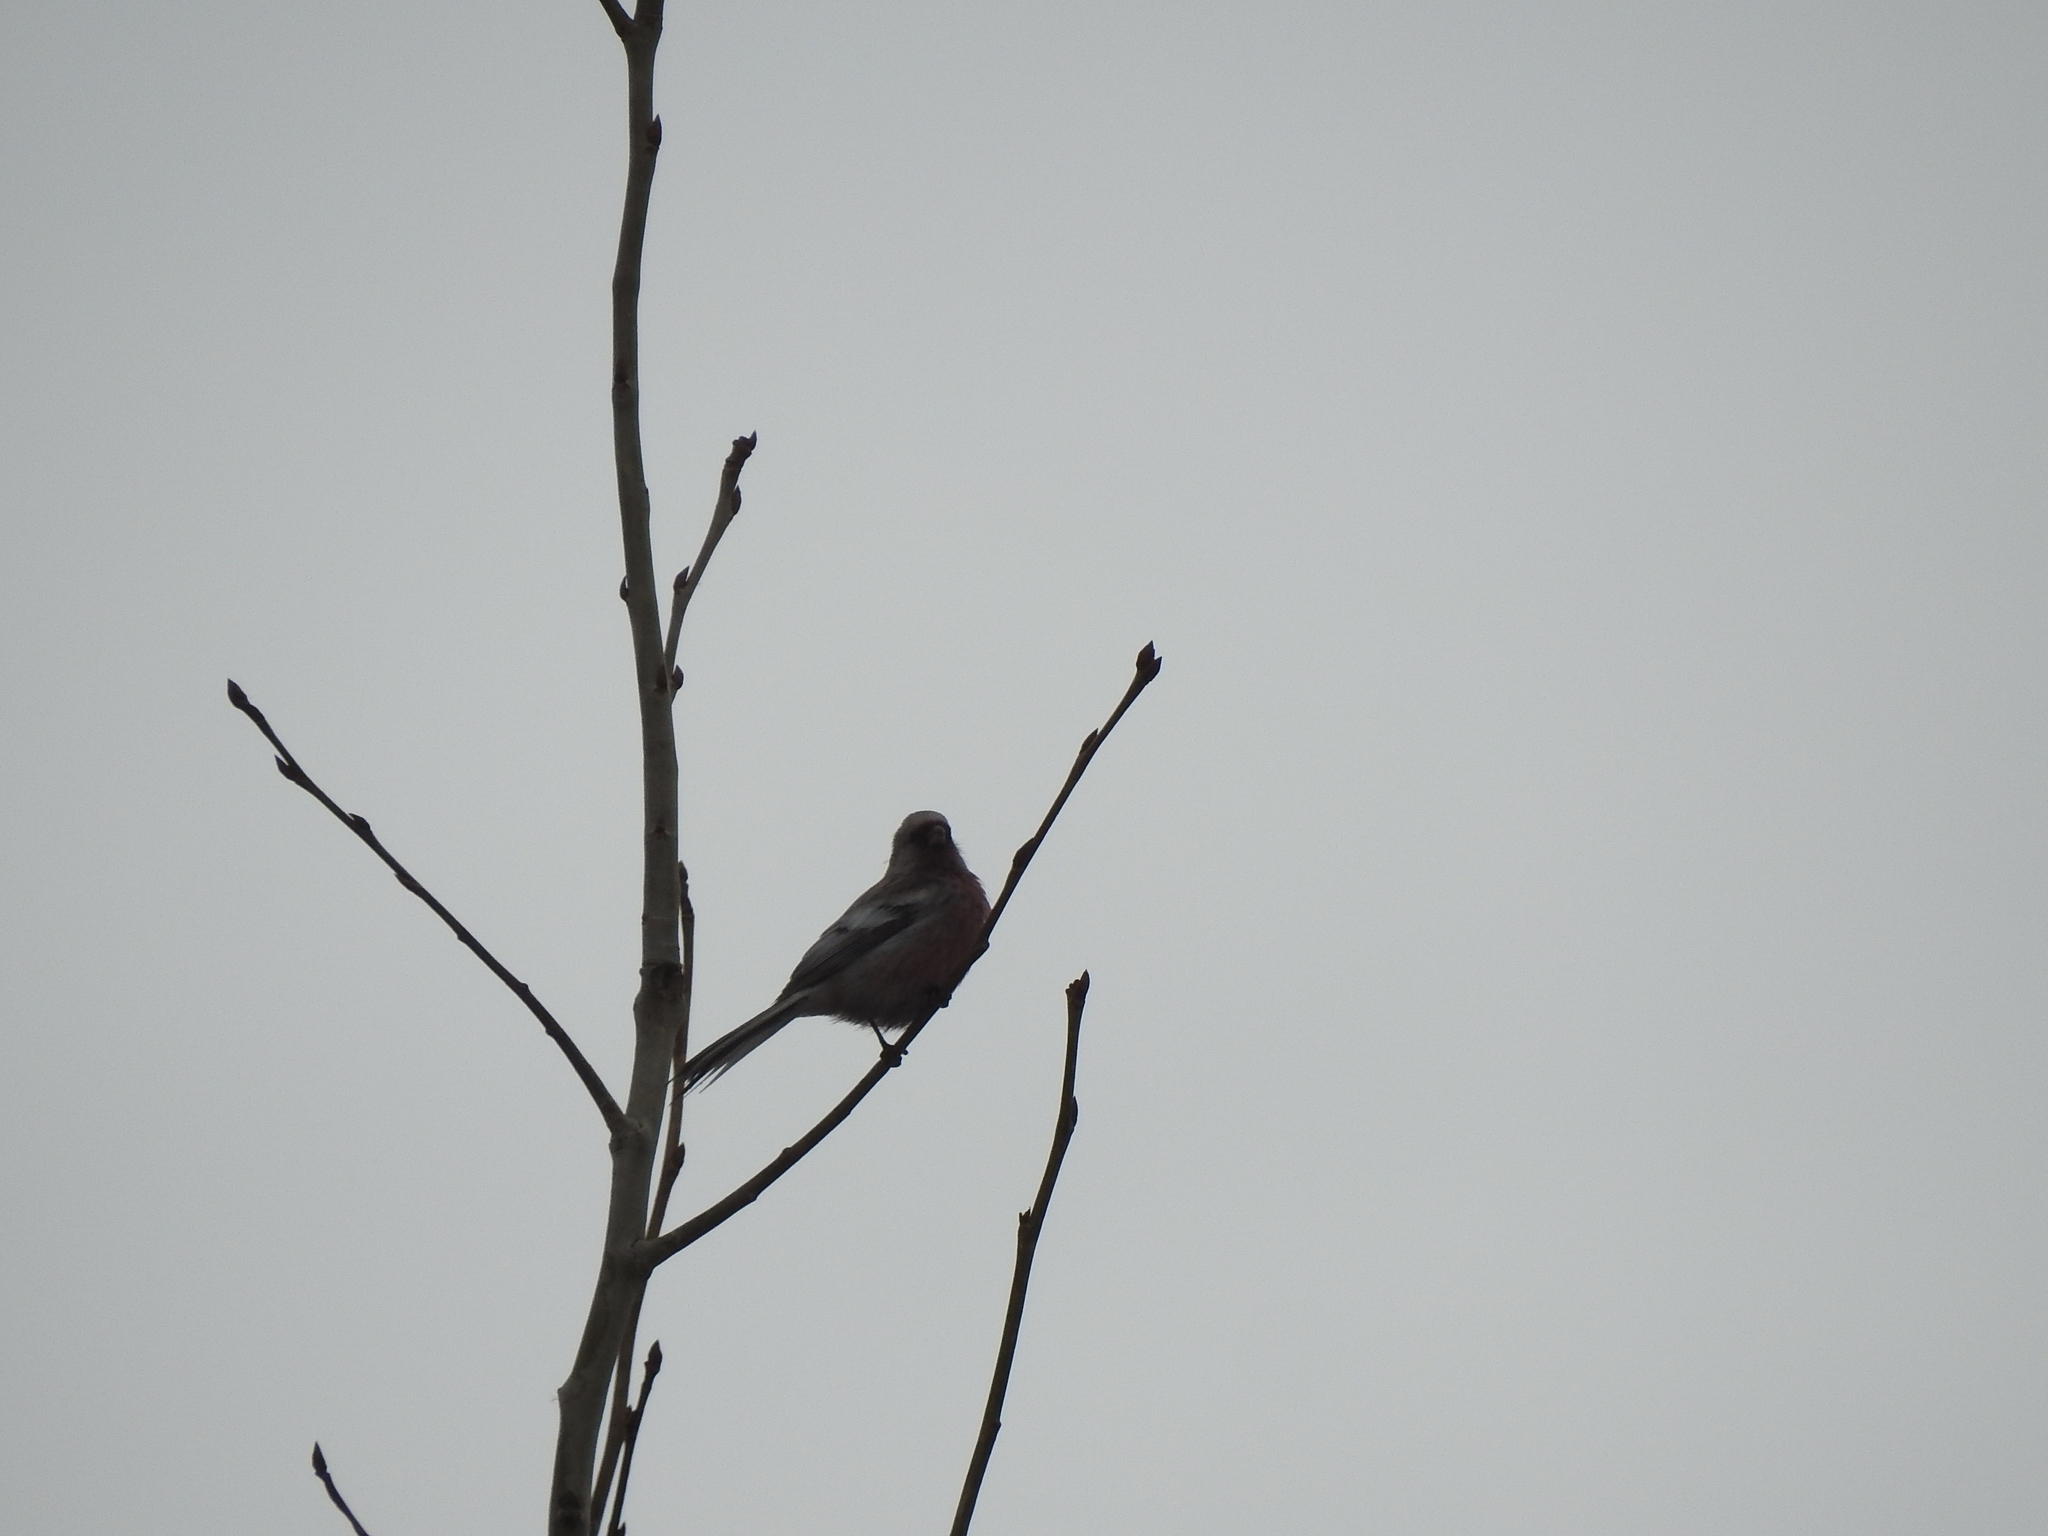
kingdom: Animalia
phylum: Chordata
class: Aves
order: Passeriformes
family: Fringillidae
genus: Carpodacus
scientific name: Carpodacus sibiricus
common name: Long-tailed rosefinch
